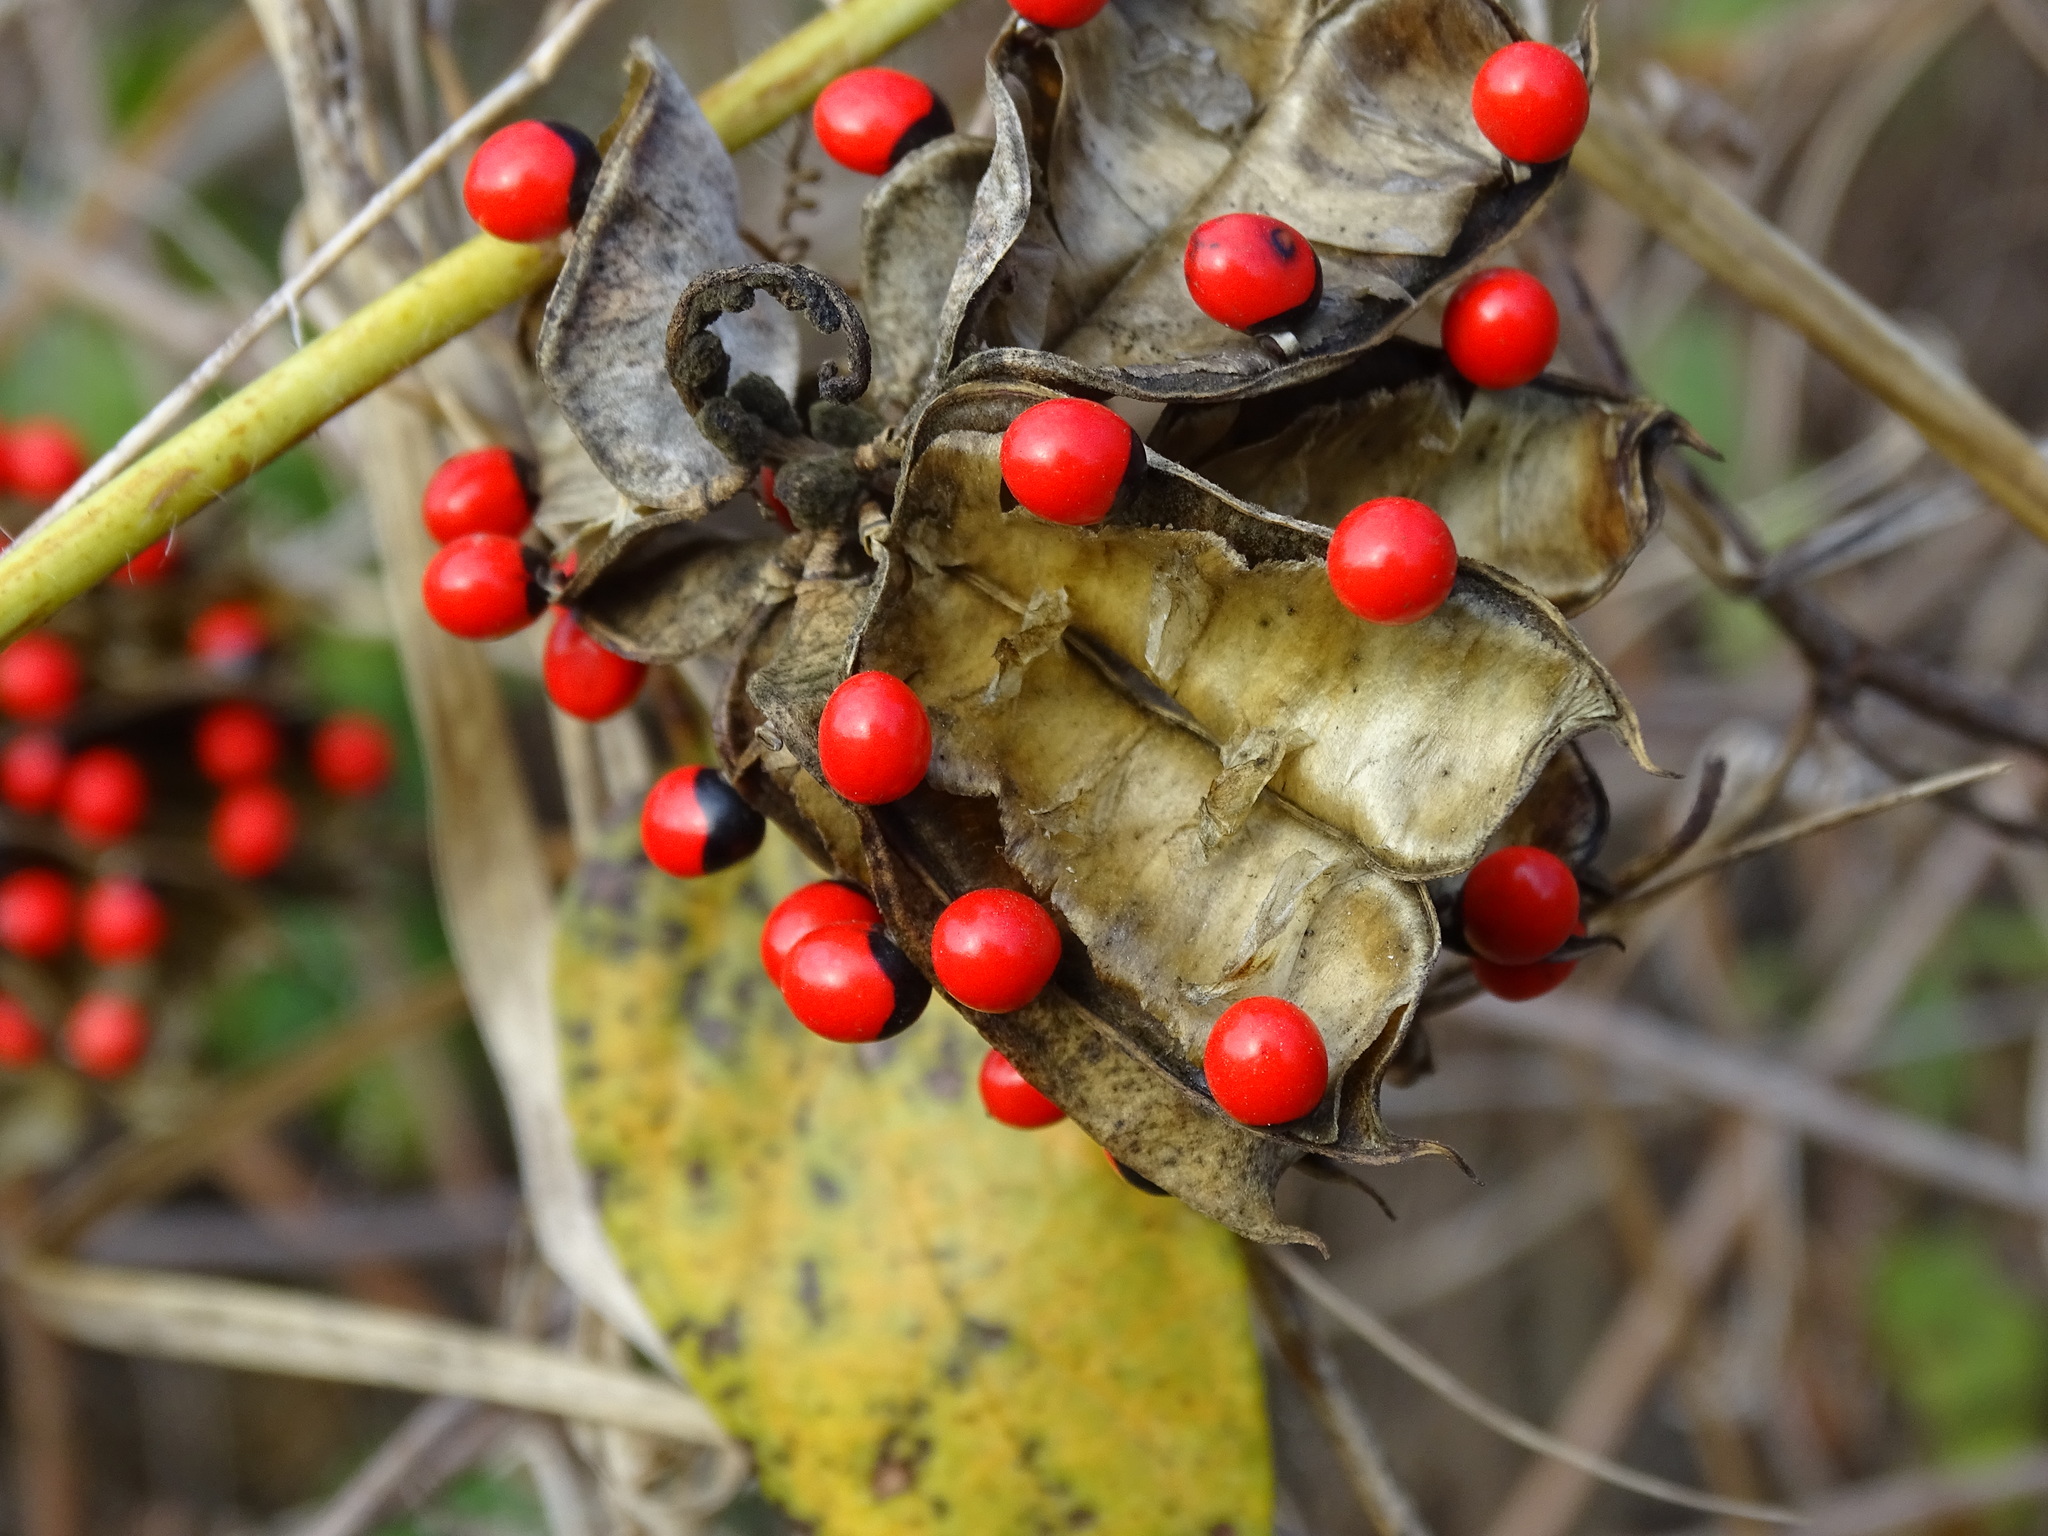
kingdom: Plantae
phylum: Tracheophyta
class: Magnoliopsida
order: Fabales
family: Fabaceae
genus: Abrus
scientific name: Abrus precatorius
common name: Rosarypea
